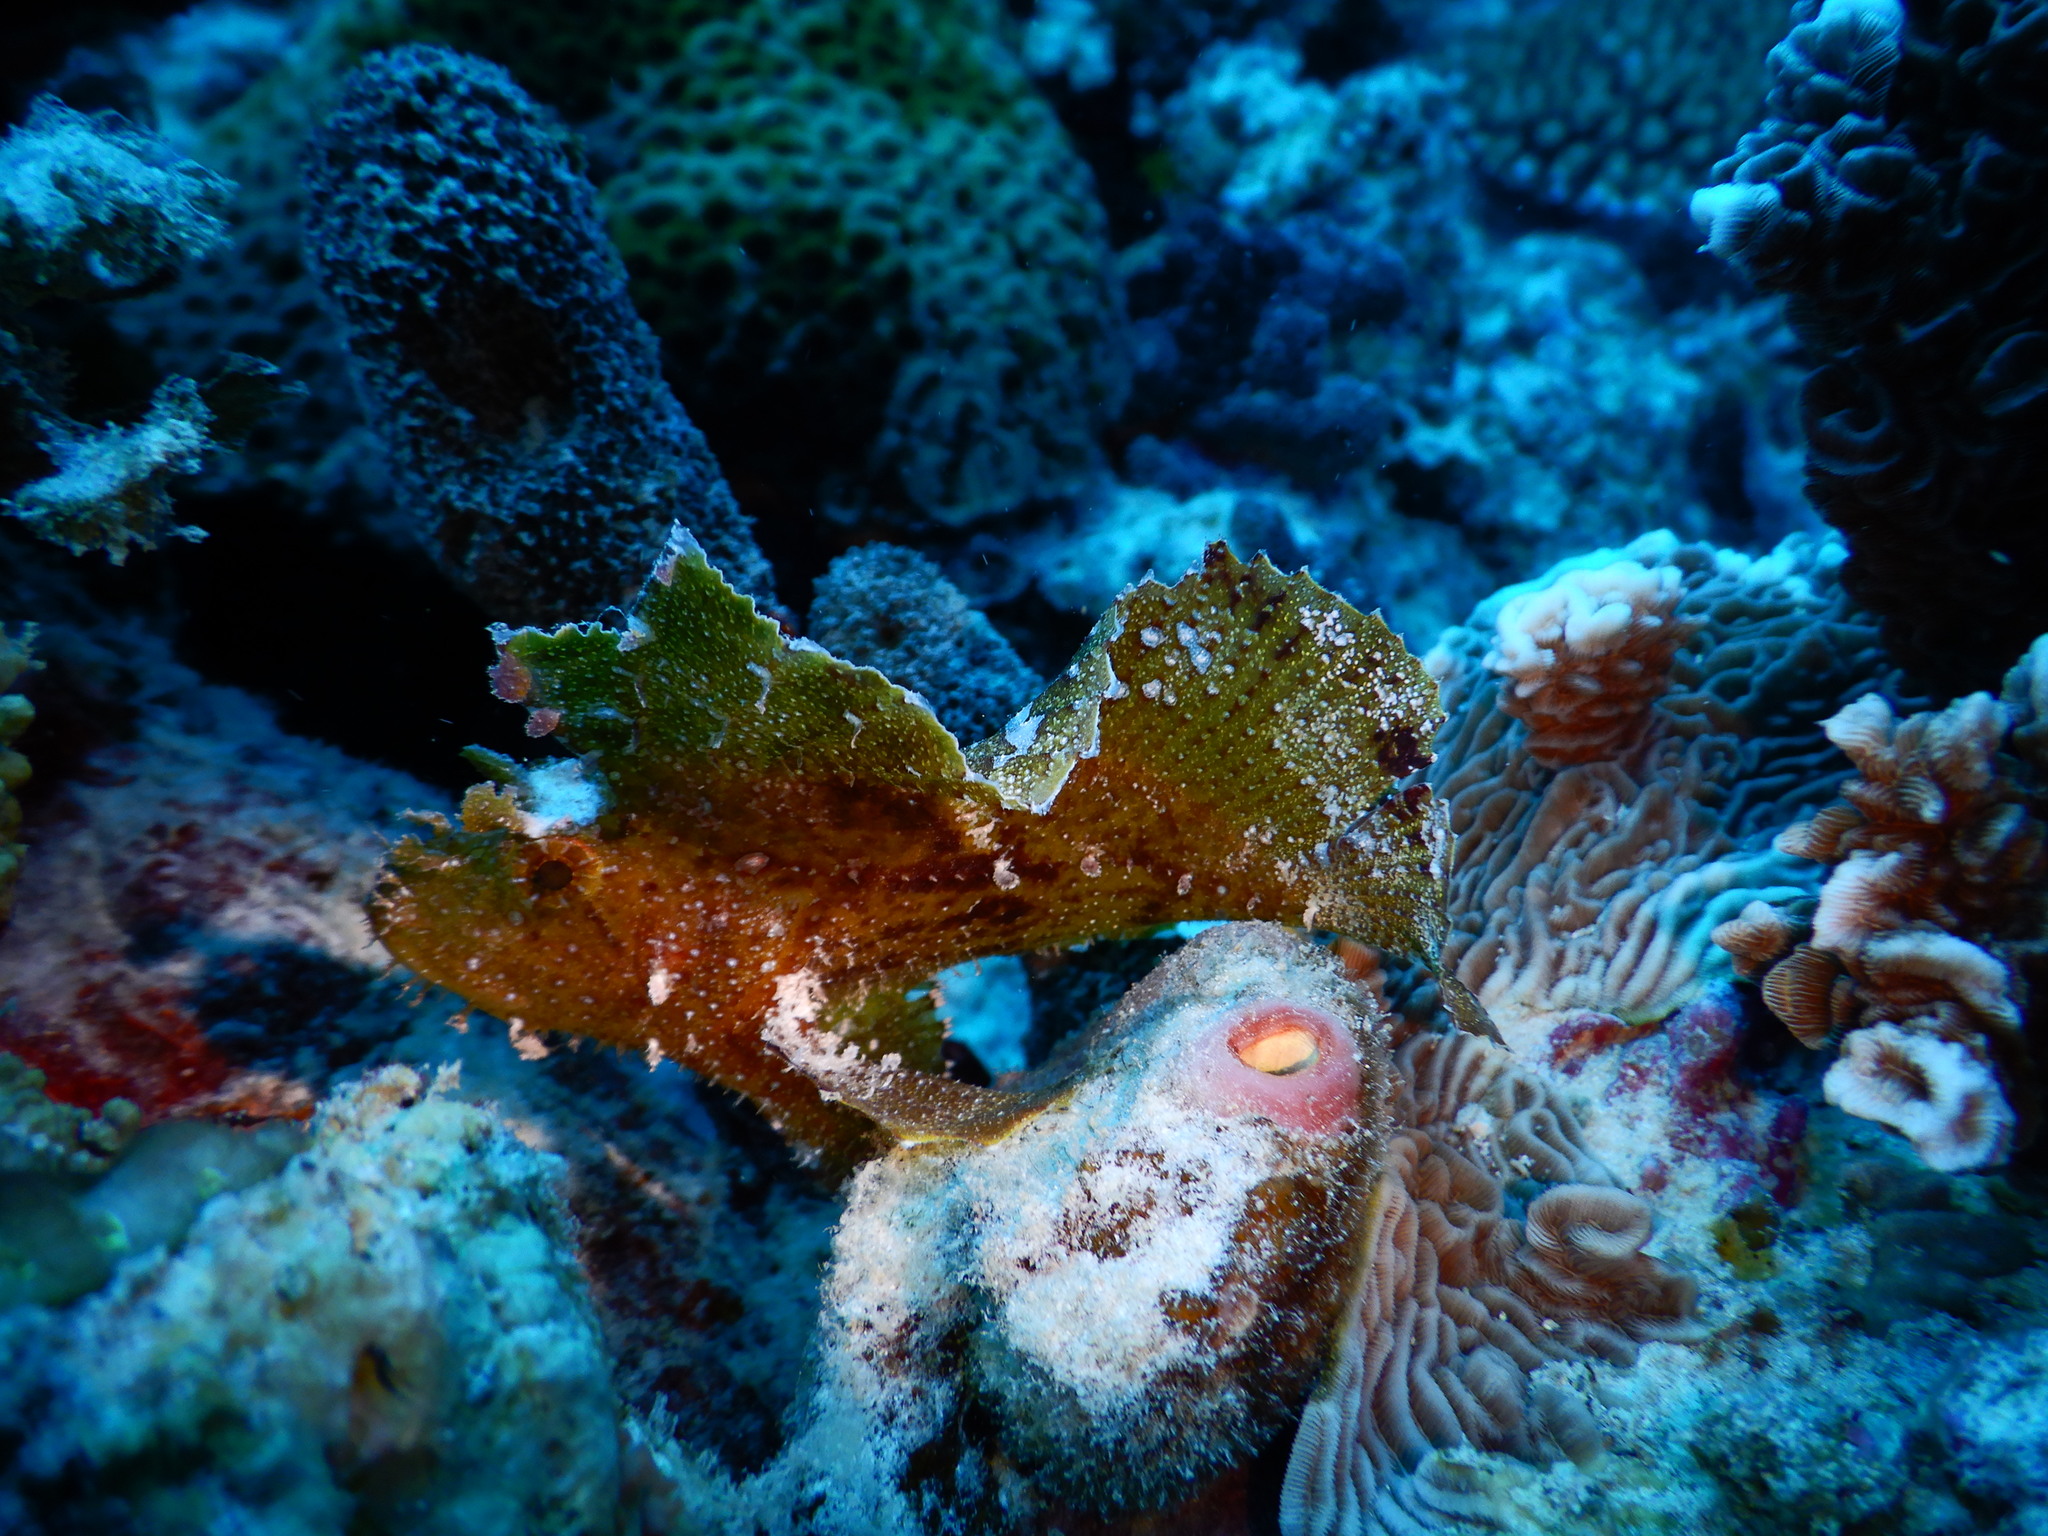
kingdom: Animalia
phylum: Chordata
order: Scorpaeniformes
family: Scorpaenidae
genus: Taenianotus
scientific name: Taenianotus triacanthus
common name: Leaf scorpionfish
